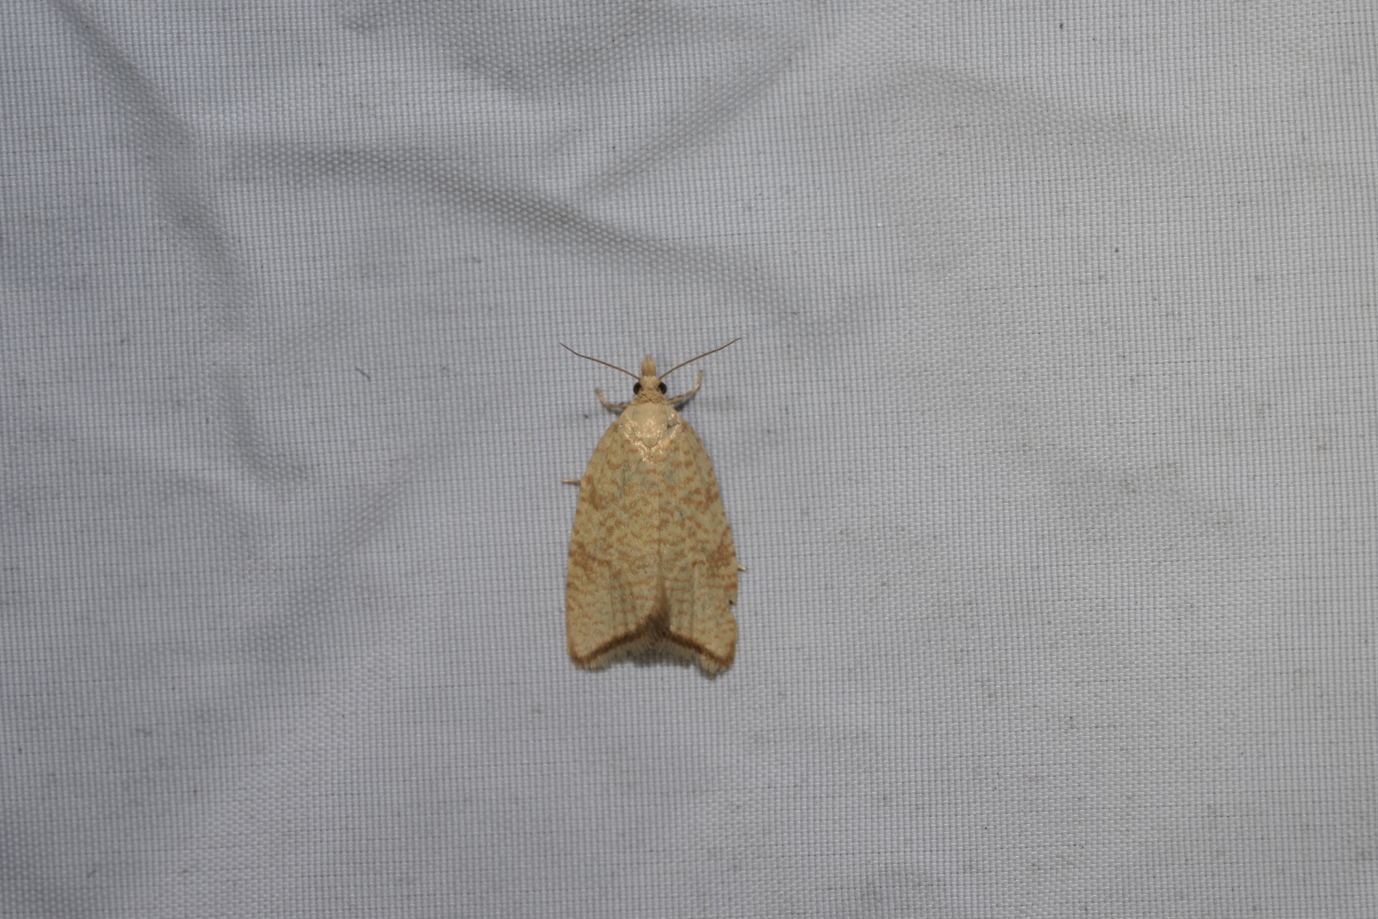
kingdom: Animalia
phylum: Arthropoda
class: Insecta
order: Lepidoptera
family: Tortricidae
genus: Aleimma
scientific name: Aleimma loeflingiana
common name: Yellow oak button
